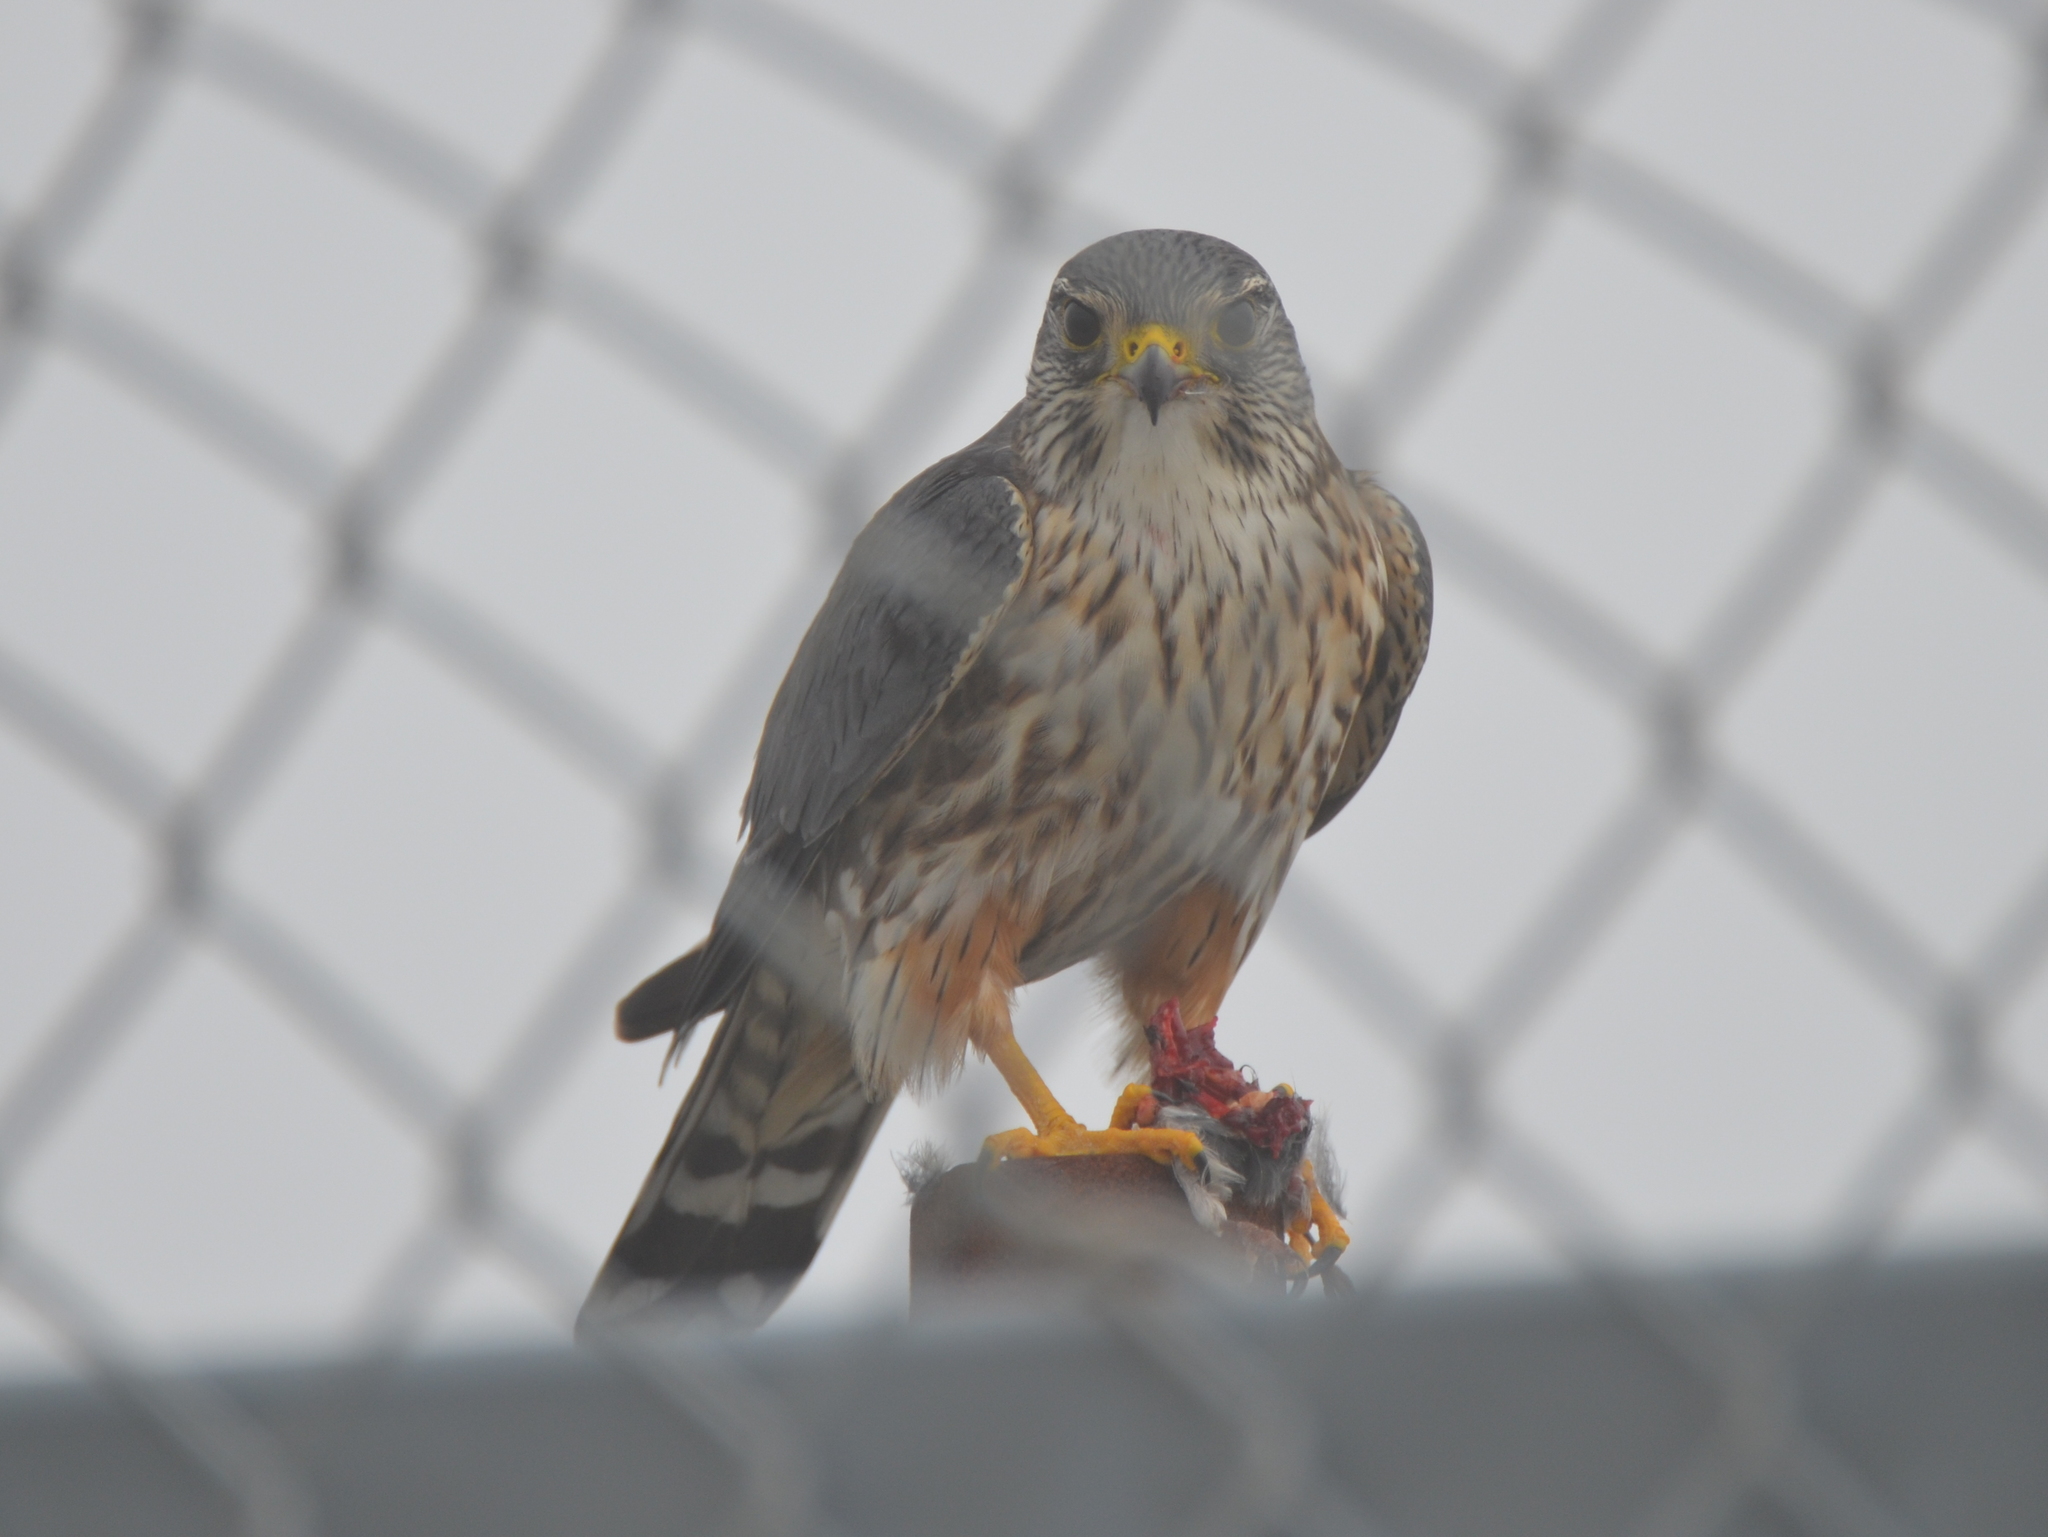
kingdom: Animalia
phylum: Chordata
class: Aves
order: Falconiformes
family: Falconidae
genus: Falco
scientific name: Falco columbarius
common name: Merlin
